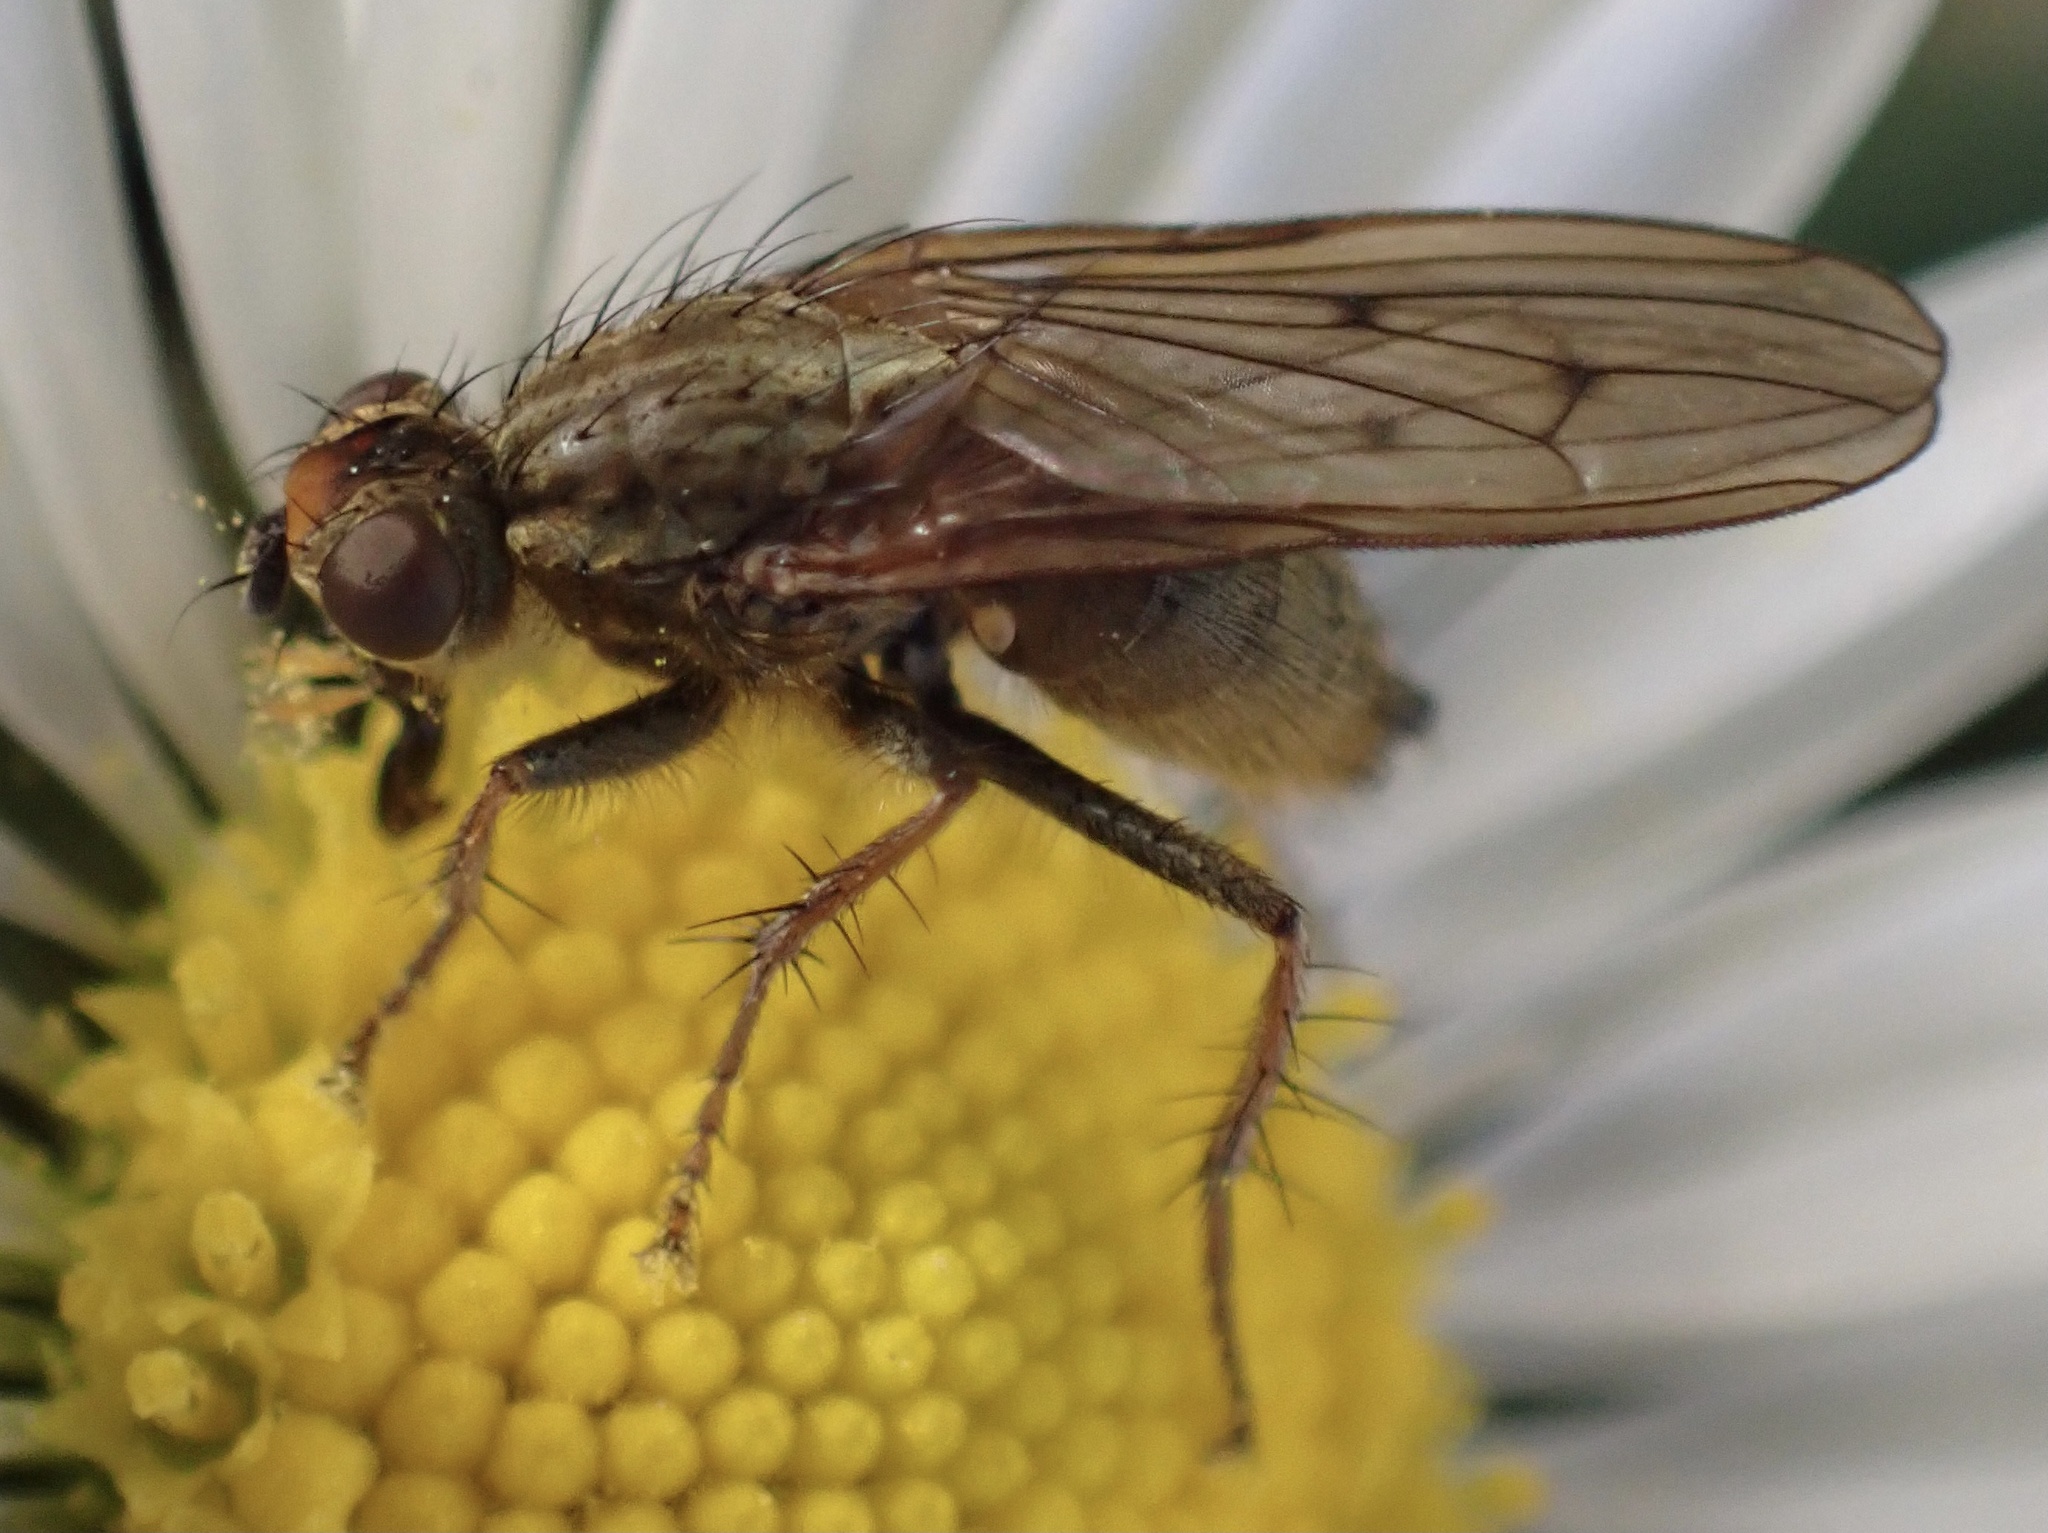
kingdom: Animalia
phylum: Arthropoda
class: Insecta
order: Diptera
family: Scathophagidae
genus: Scathophaga
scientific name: Scathophaga stercoraria
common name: Yellow dung fly
